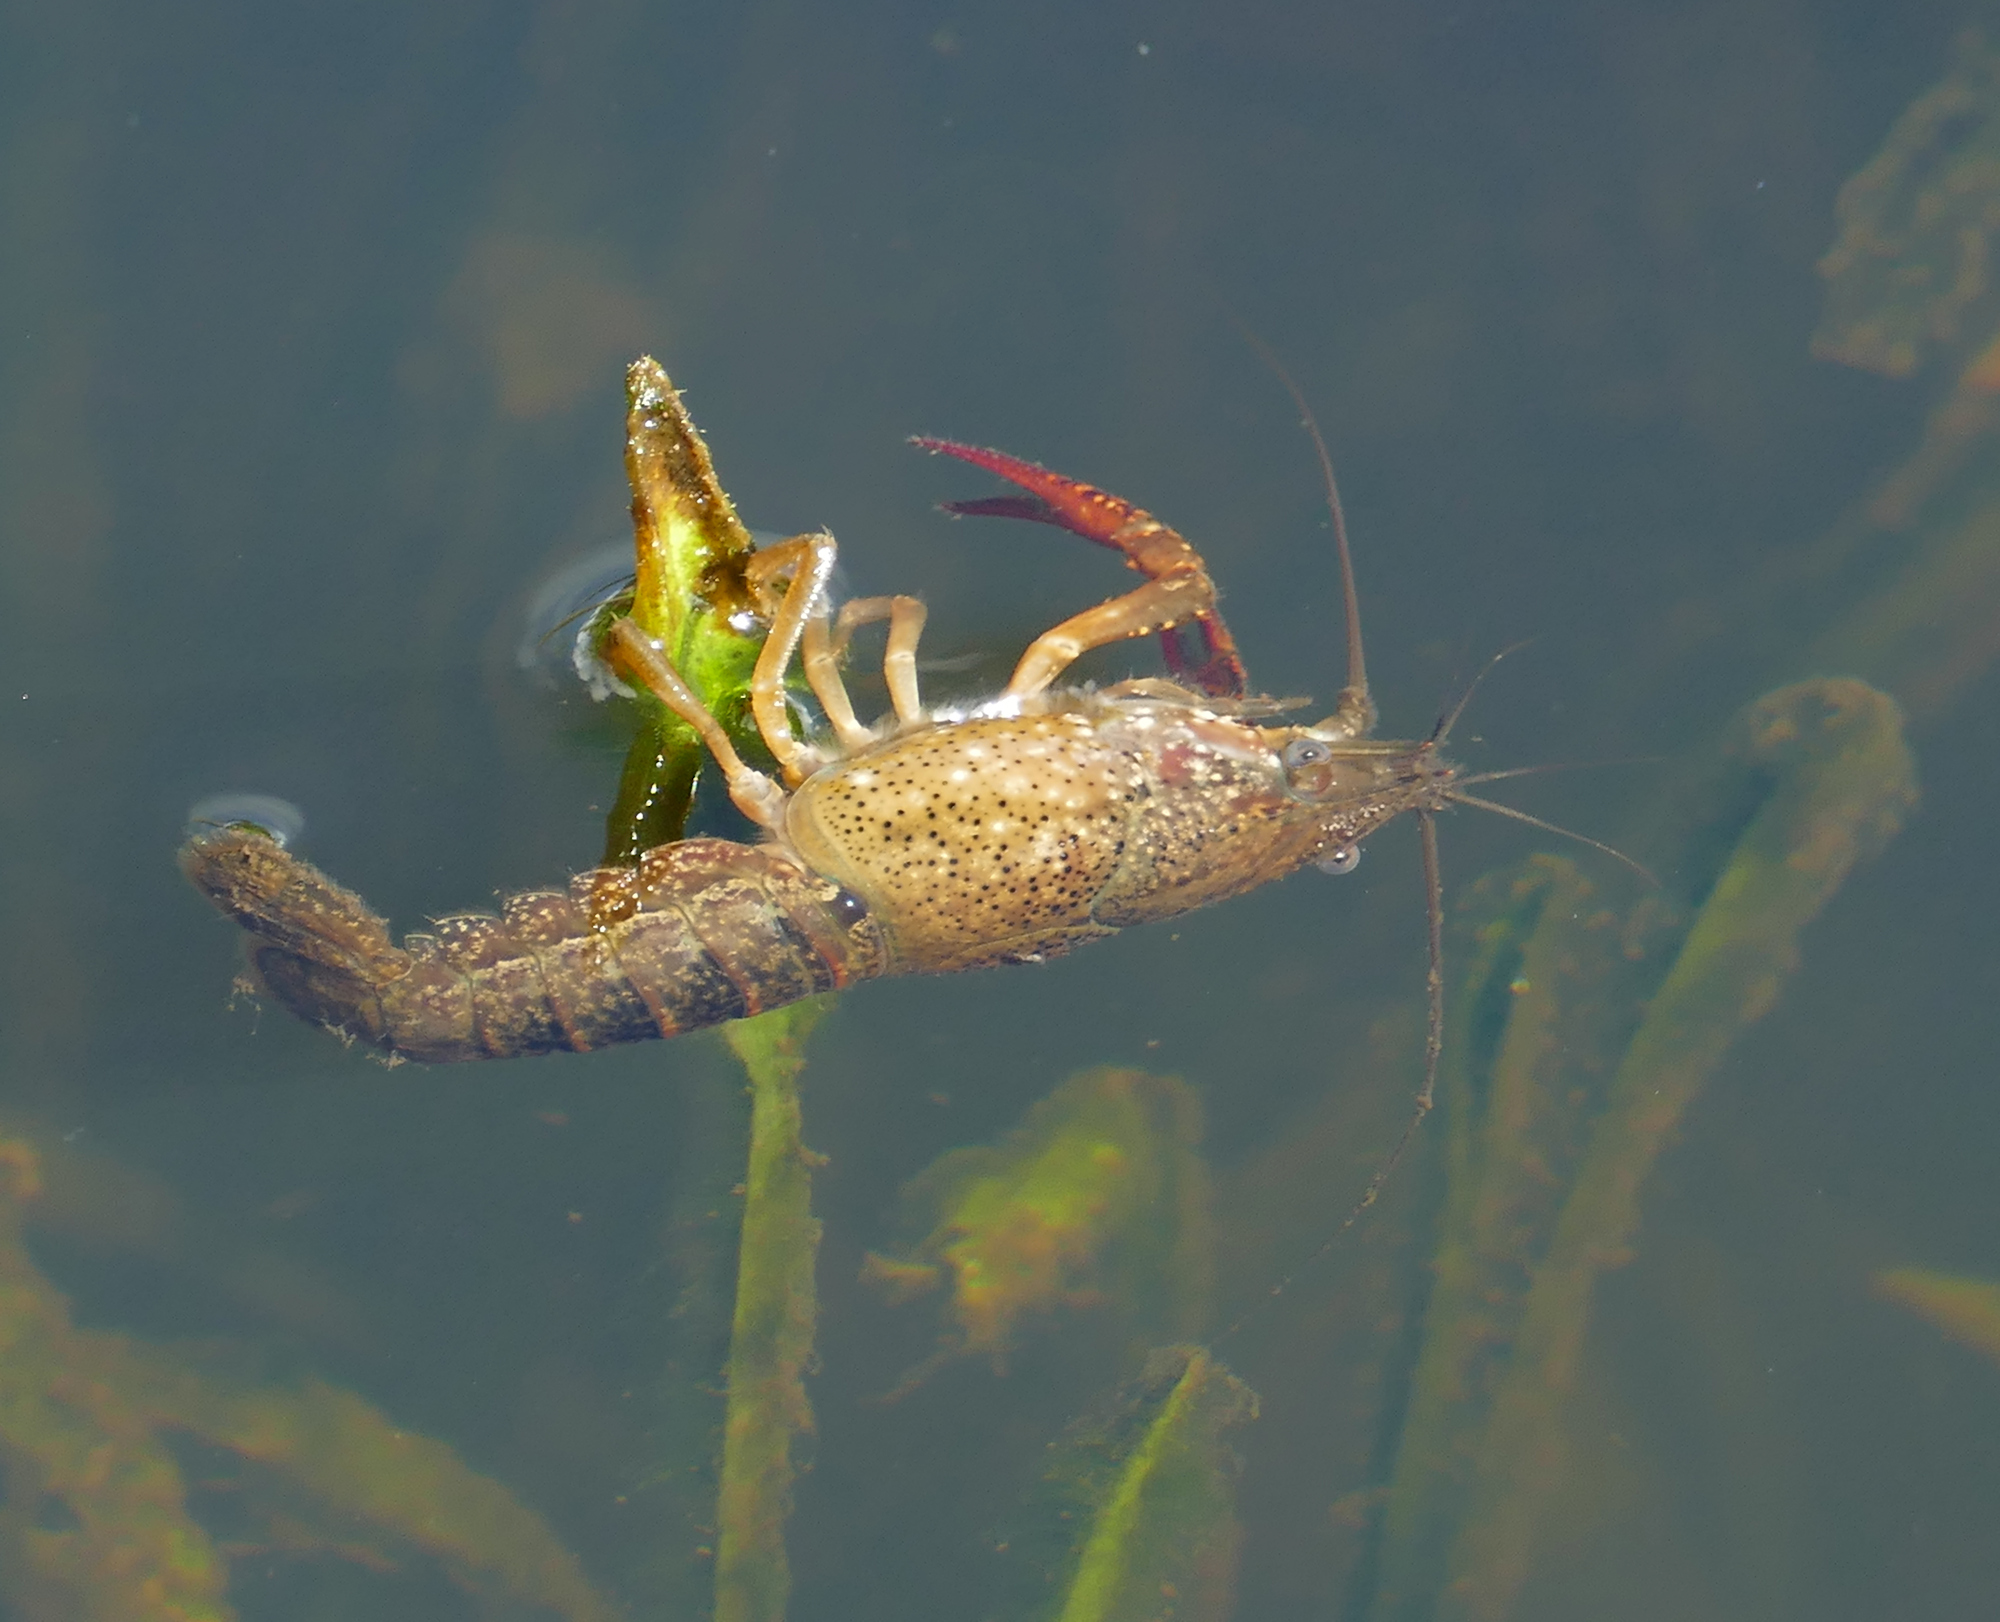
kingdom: Animalia
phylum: Arthropoda
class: Malacostraca
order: Decapoda
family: Cambaridae
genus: Procambarus
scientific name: Procambarus clarkii
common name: Red swamp crayfish
